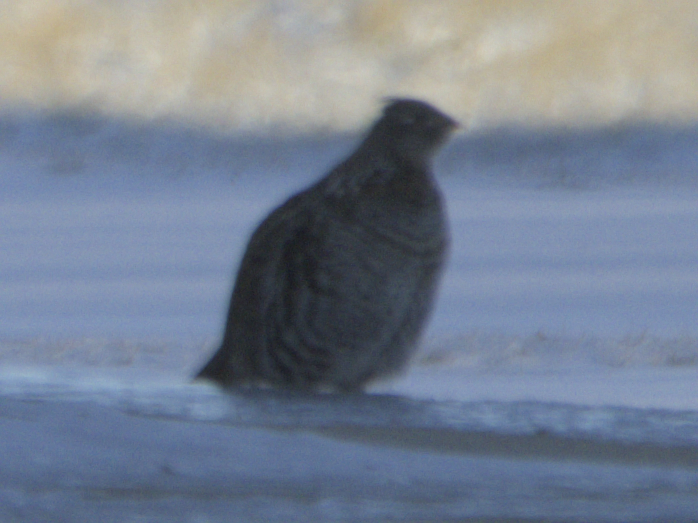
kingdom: Animalia
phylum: Chordata
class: Aves
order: Galliformes
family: Phasianidae
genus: Bonasa
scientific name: Bonasa umbellus
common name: Ruffed grouse
